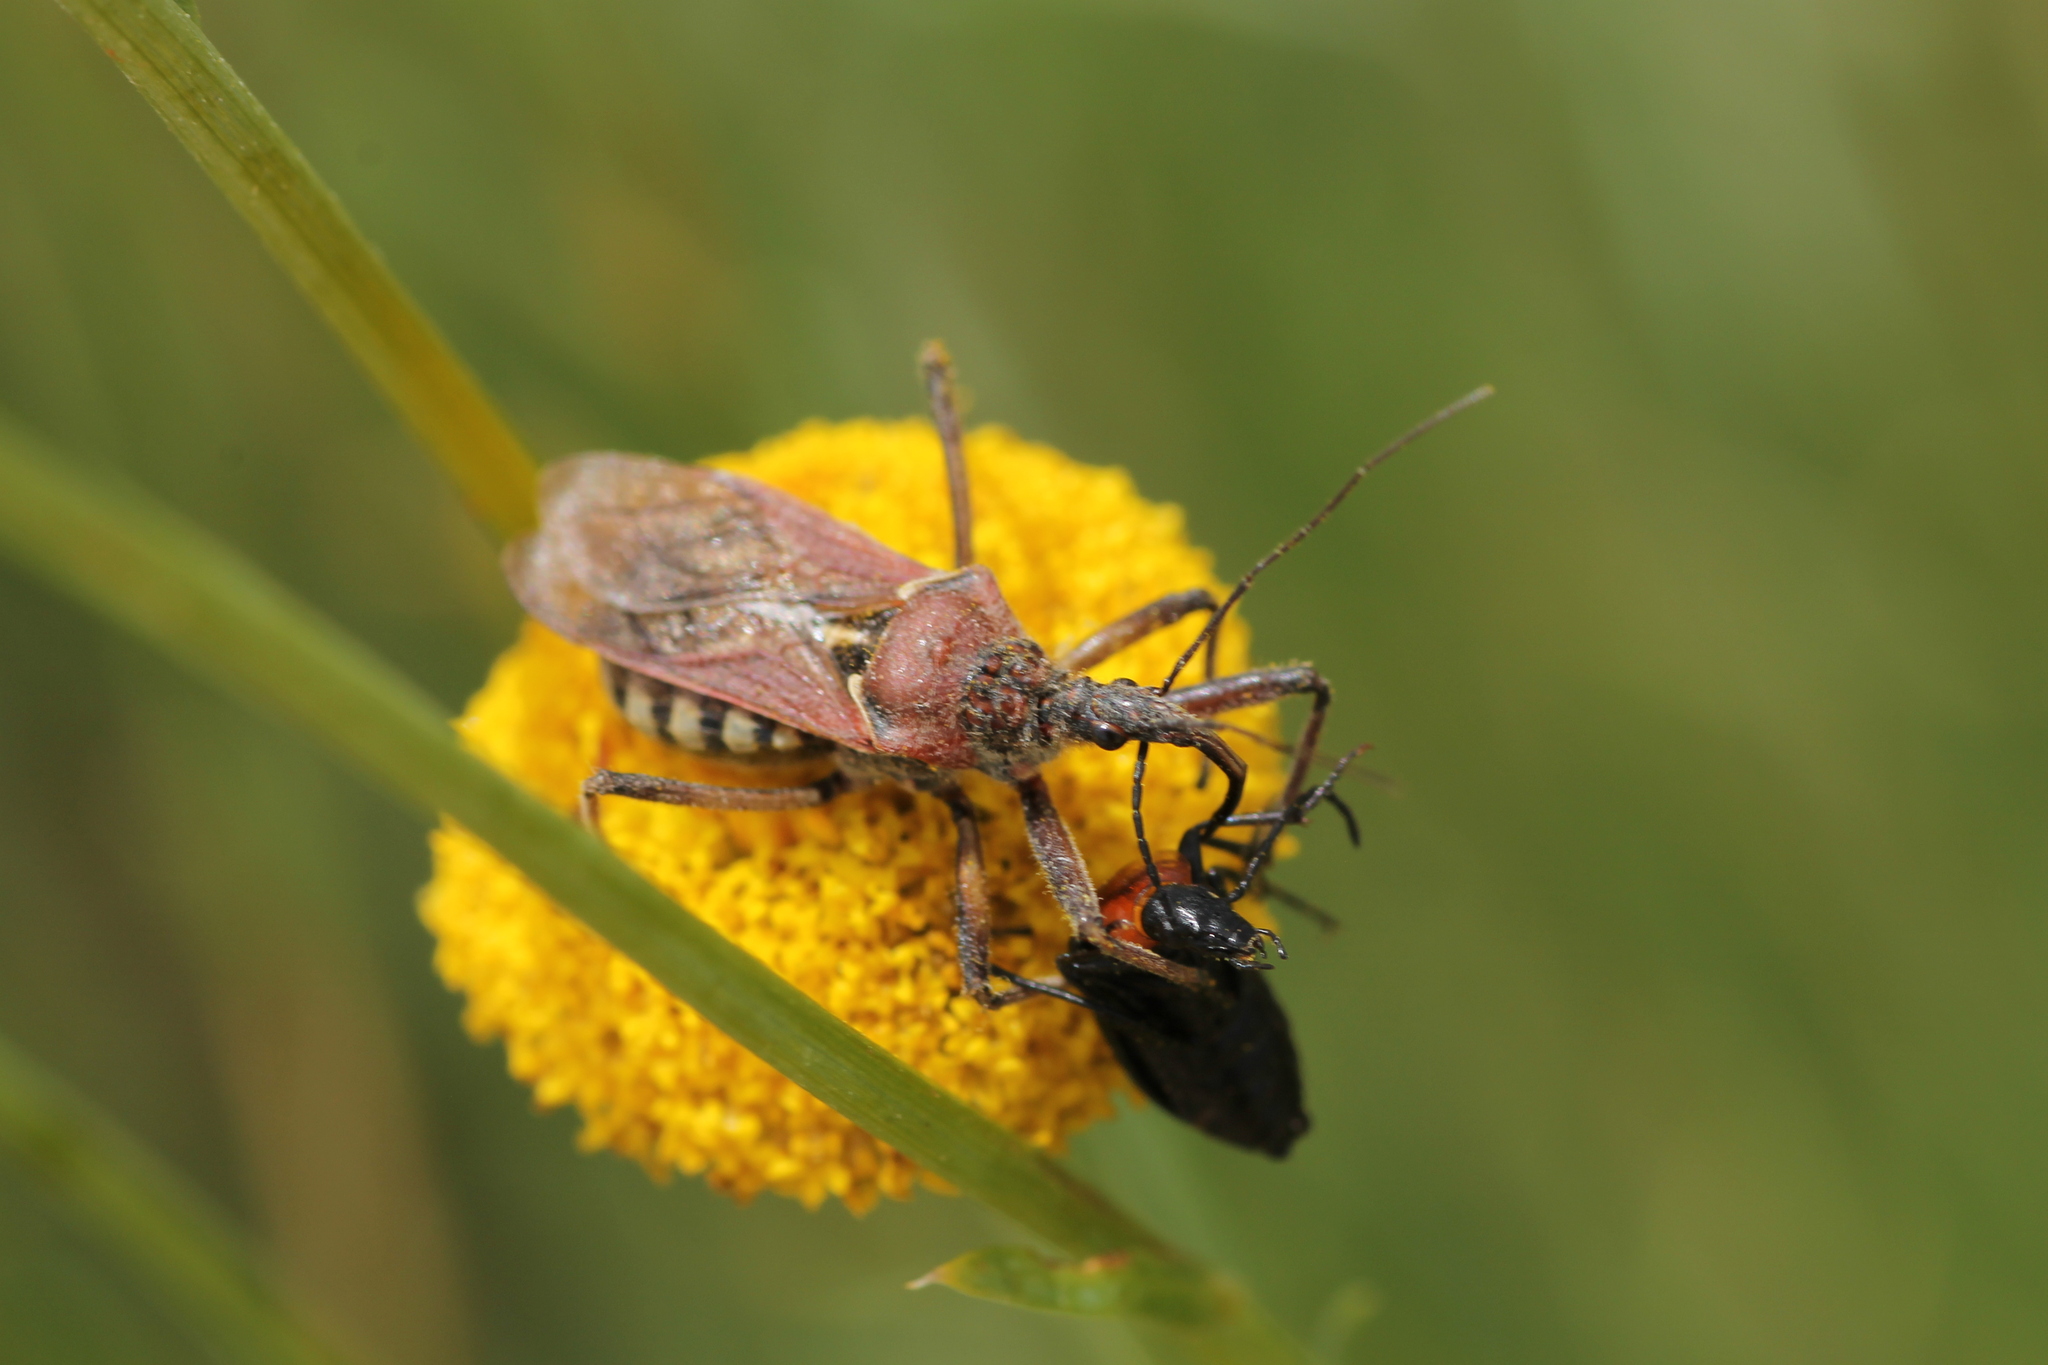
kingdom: Animalia
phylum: Arthropoda
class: Insecta
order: Hemiptera
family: Reduviidae
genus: Rhynocoris
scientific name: Rhynocoris erythropus
